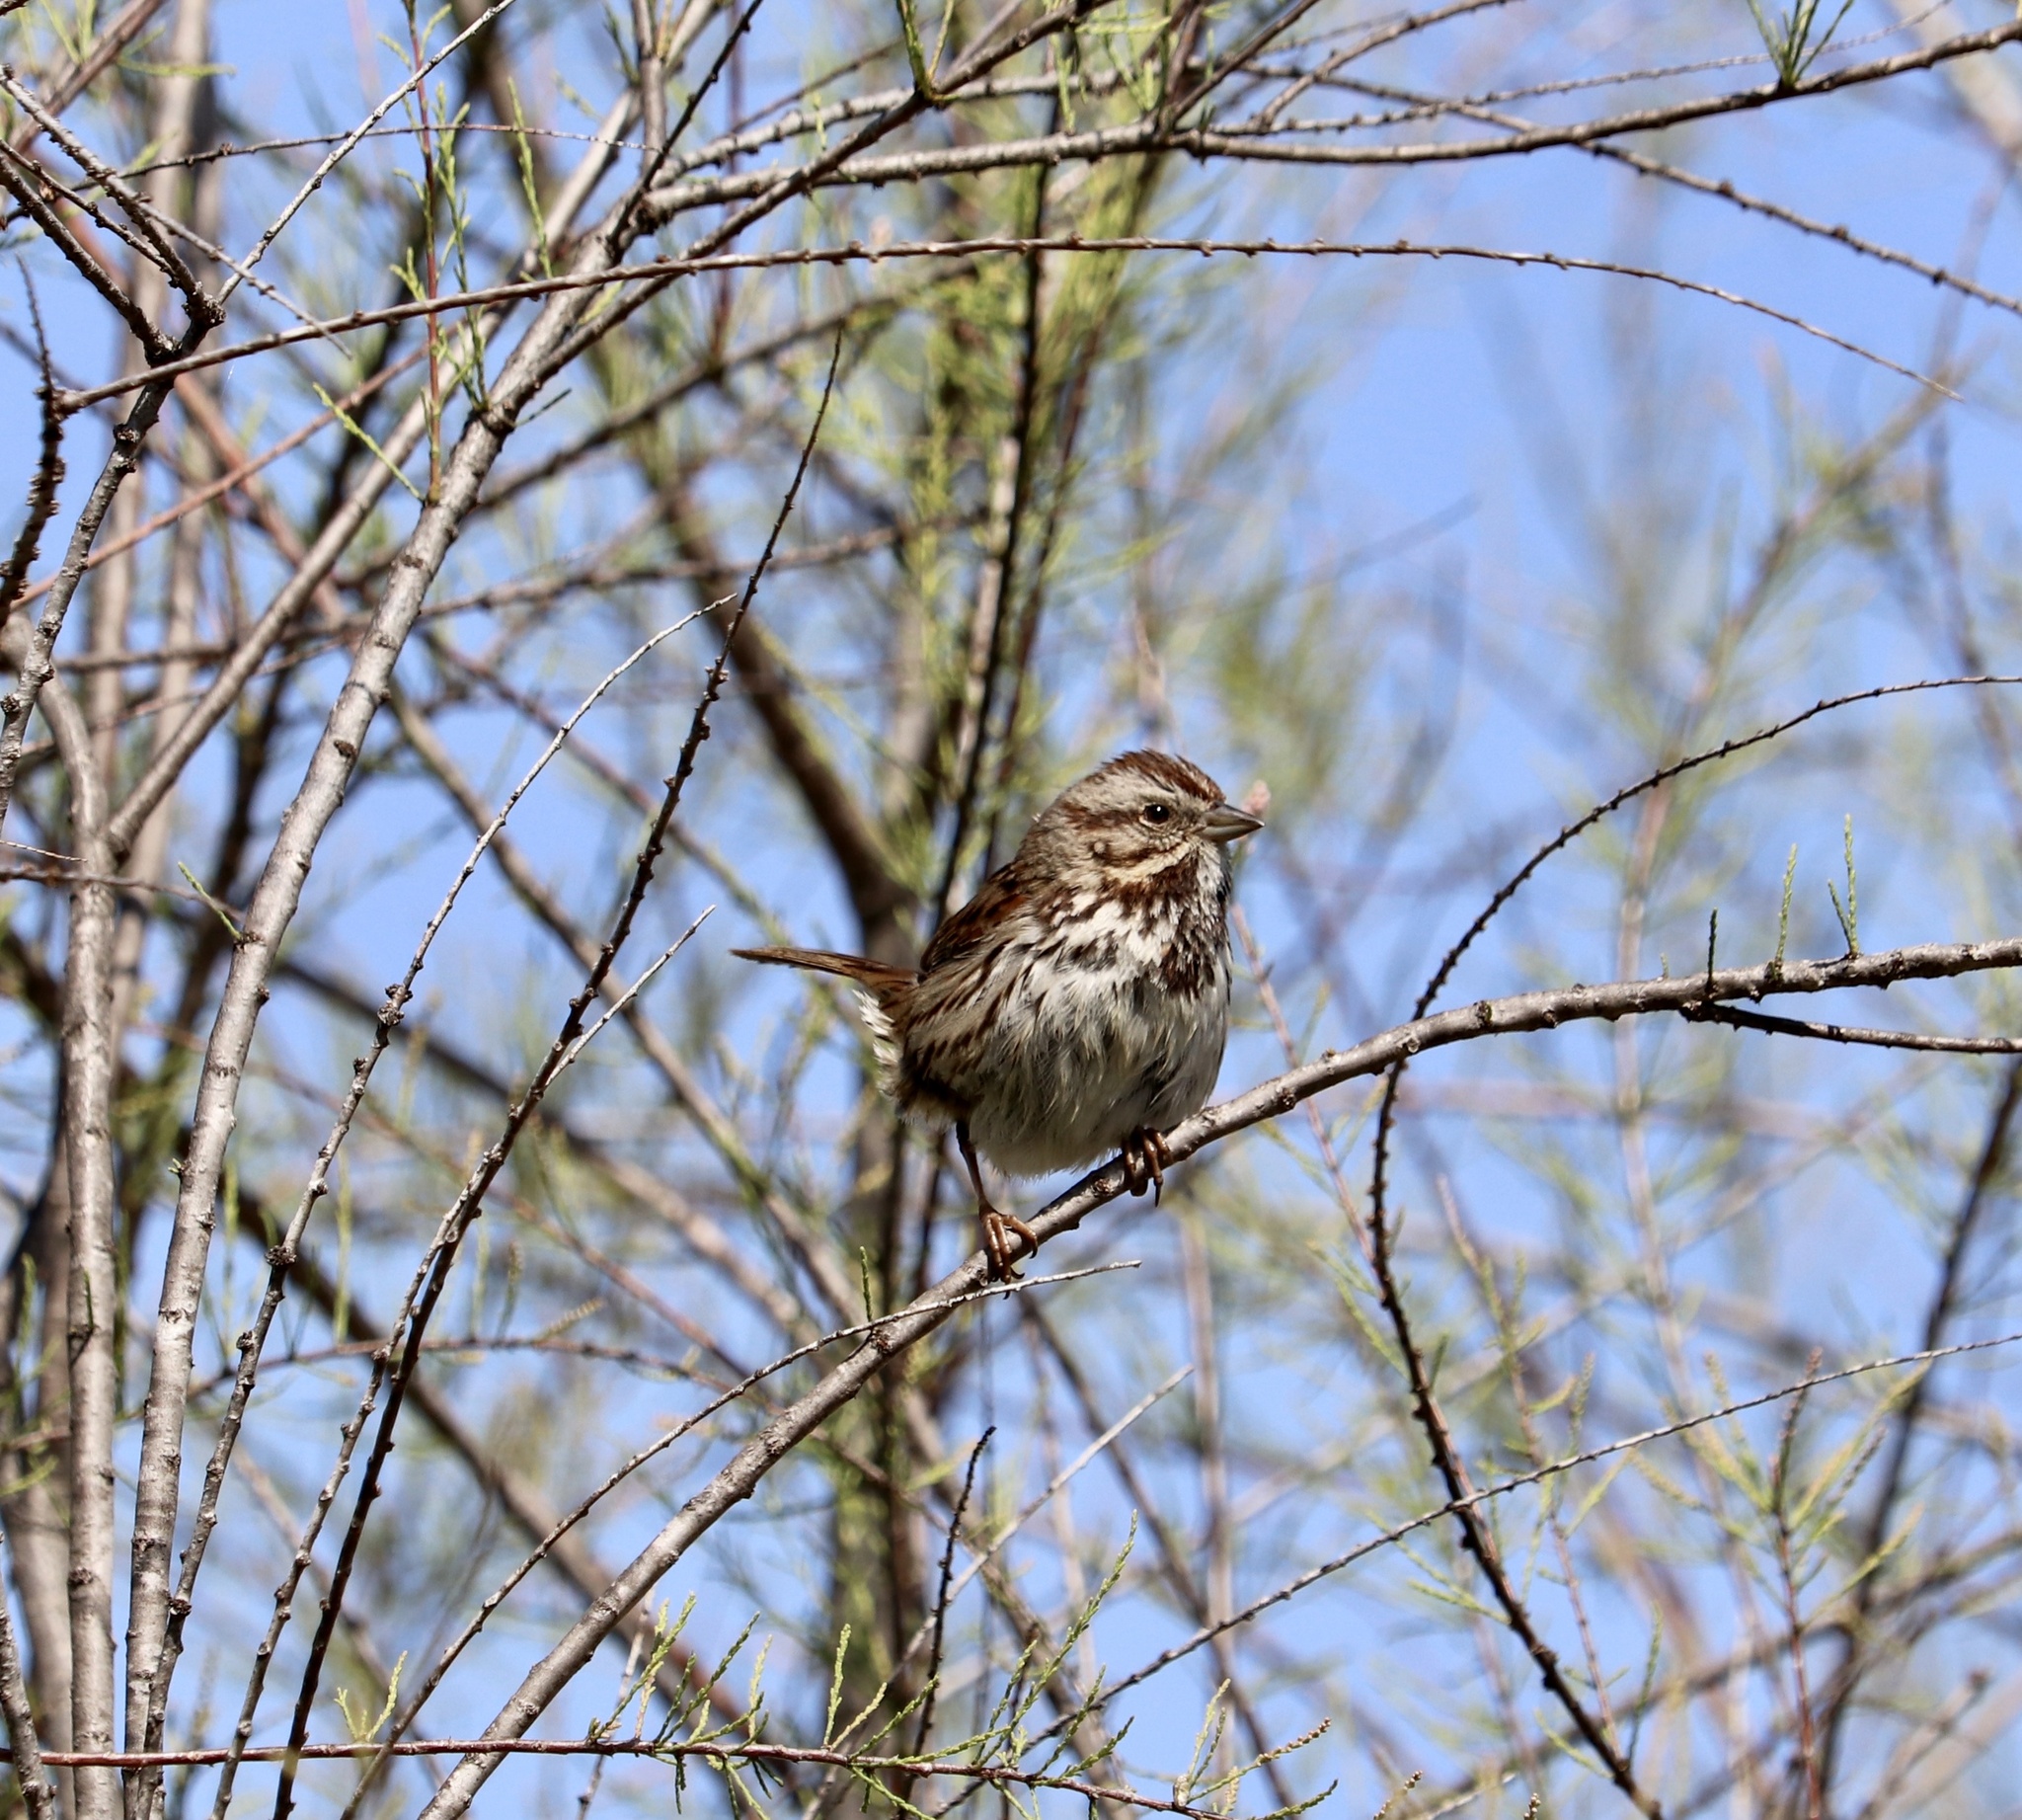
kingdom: Animalia
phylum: Chordata
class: Aves
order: Passeriformes
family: Passerellidae
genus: Melospiza
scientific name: Melospiza melodia
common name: Song sparrow
